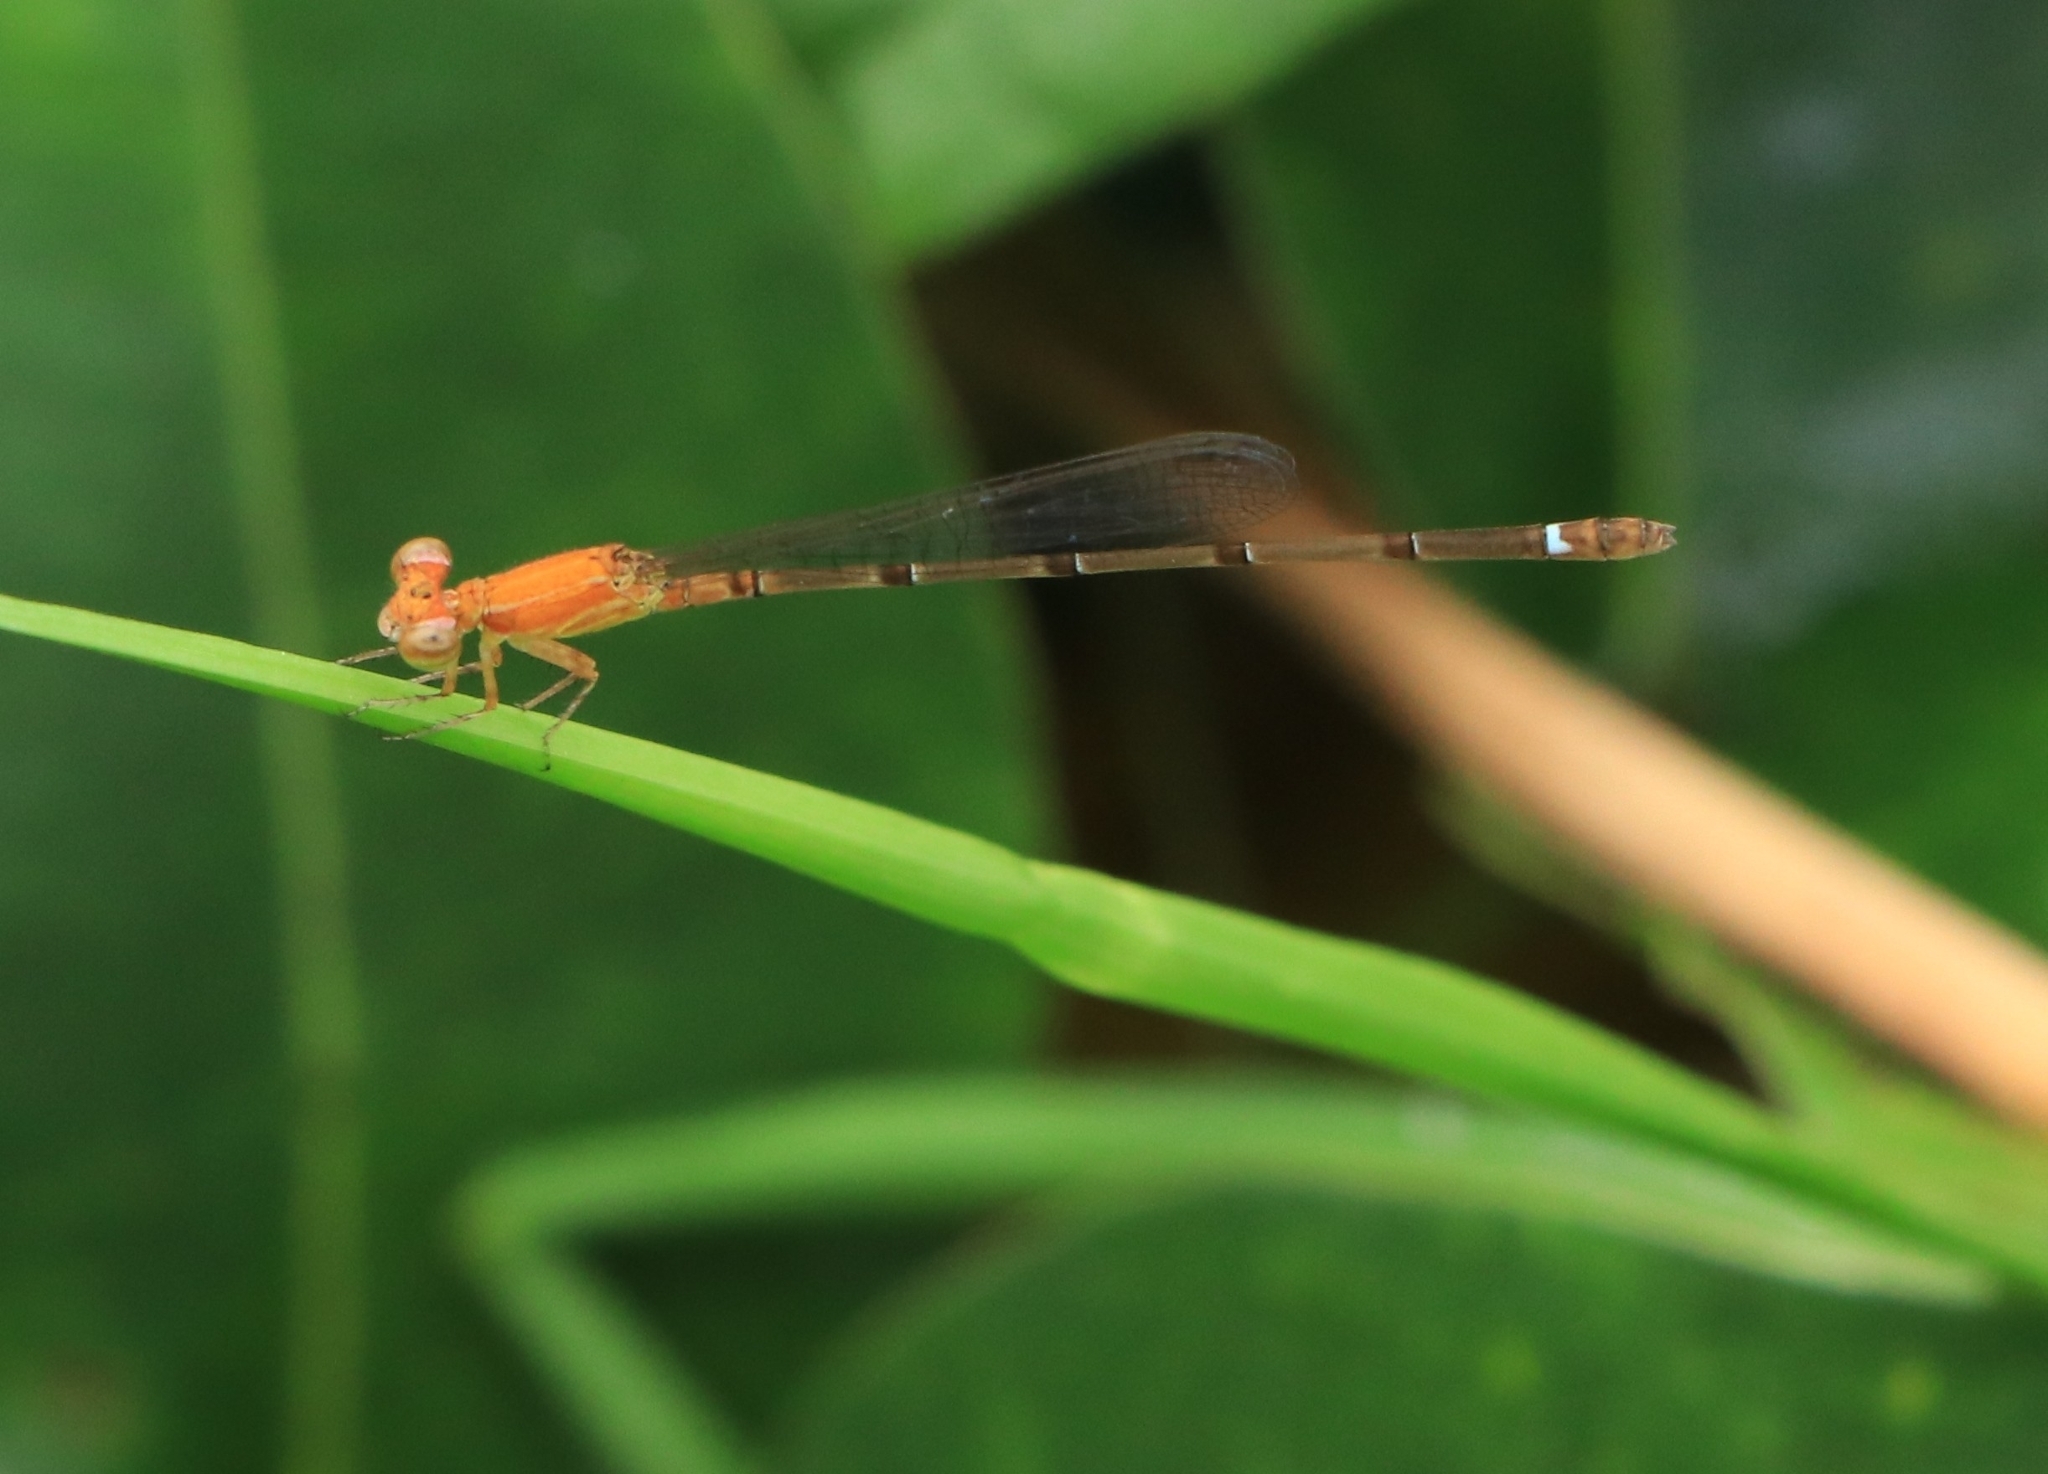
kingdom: Animalia
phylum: Arthropoda
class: Insecta
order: Odonata
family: Coenagrionidae
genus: Mortonagrion
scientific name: Mortonagrion varralli
